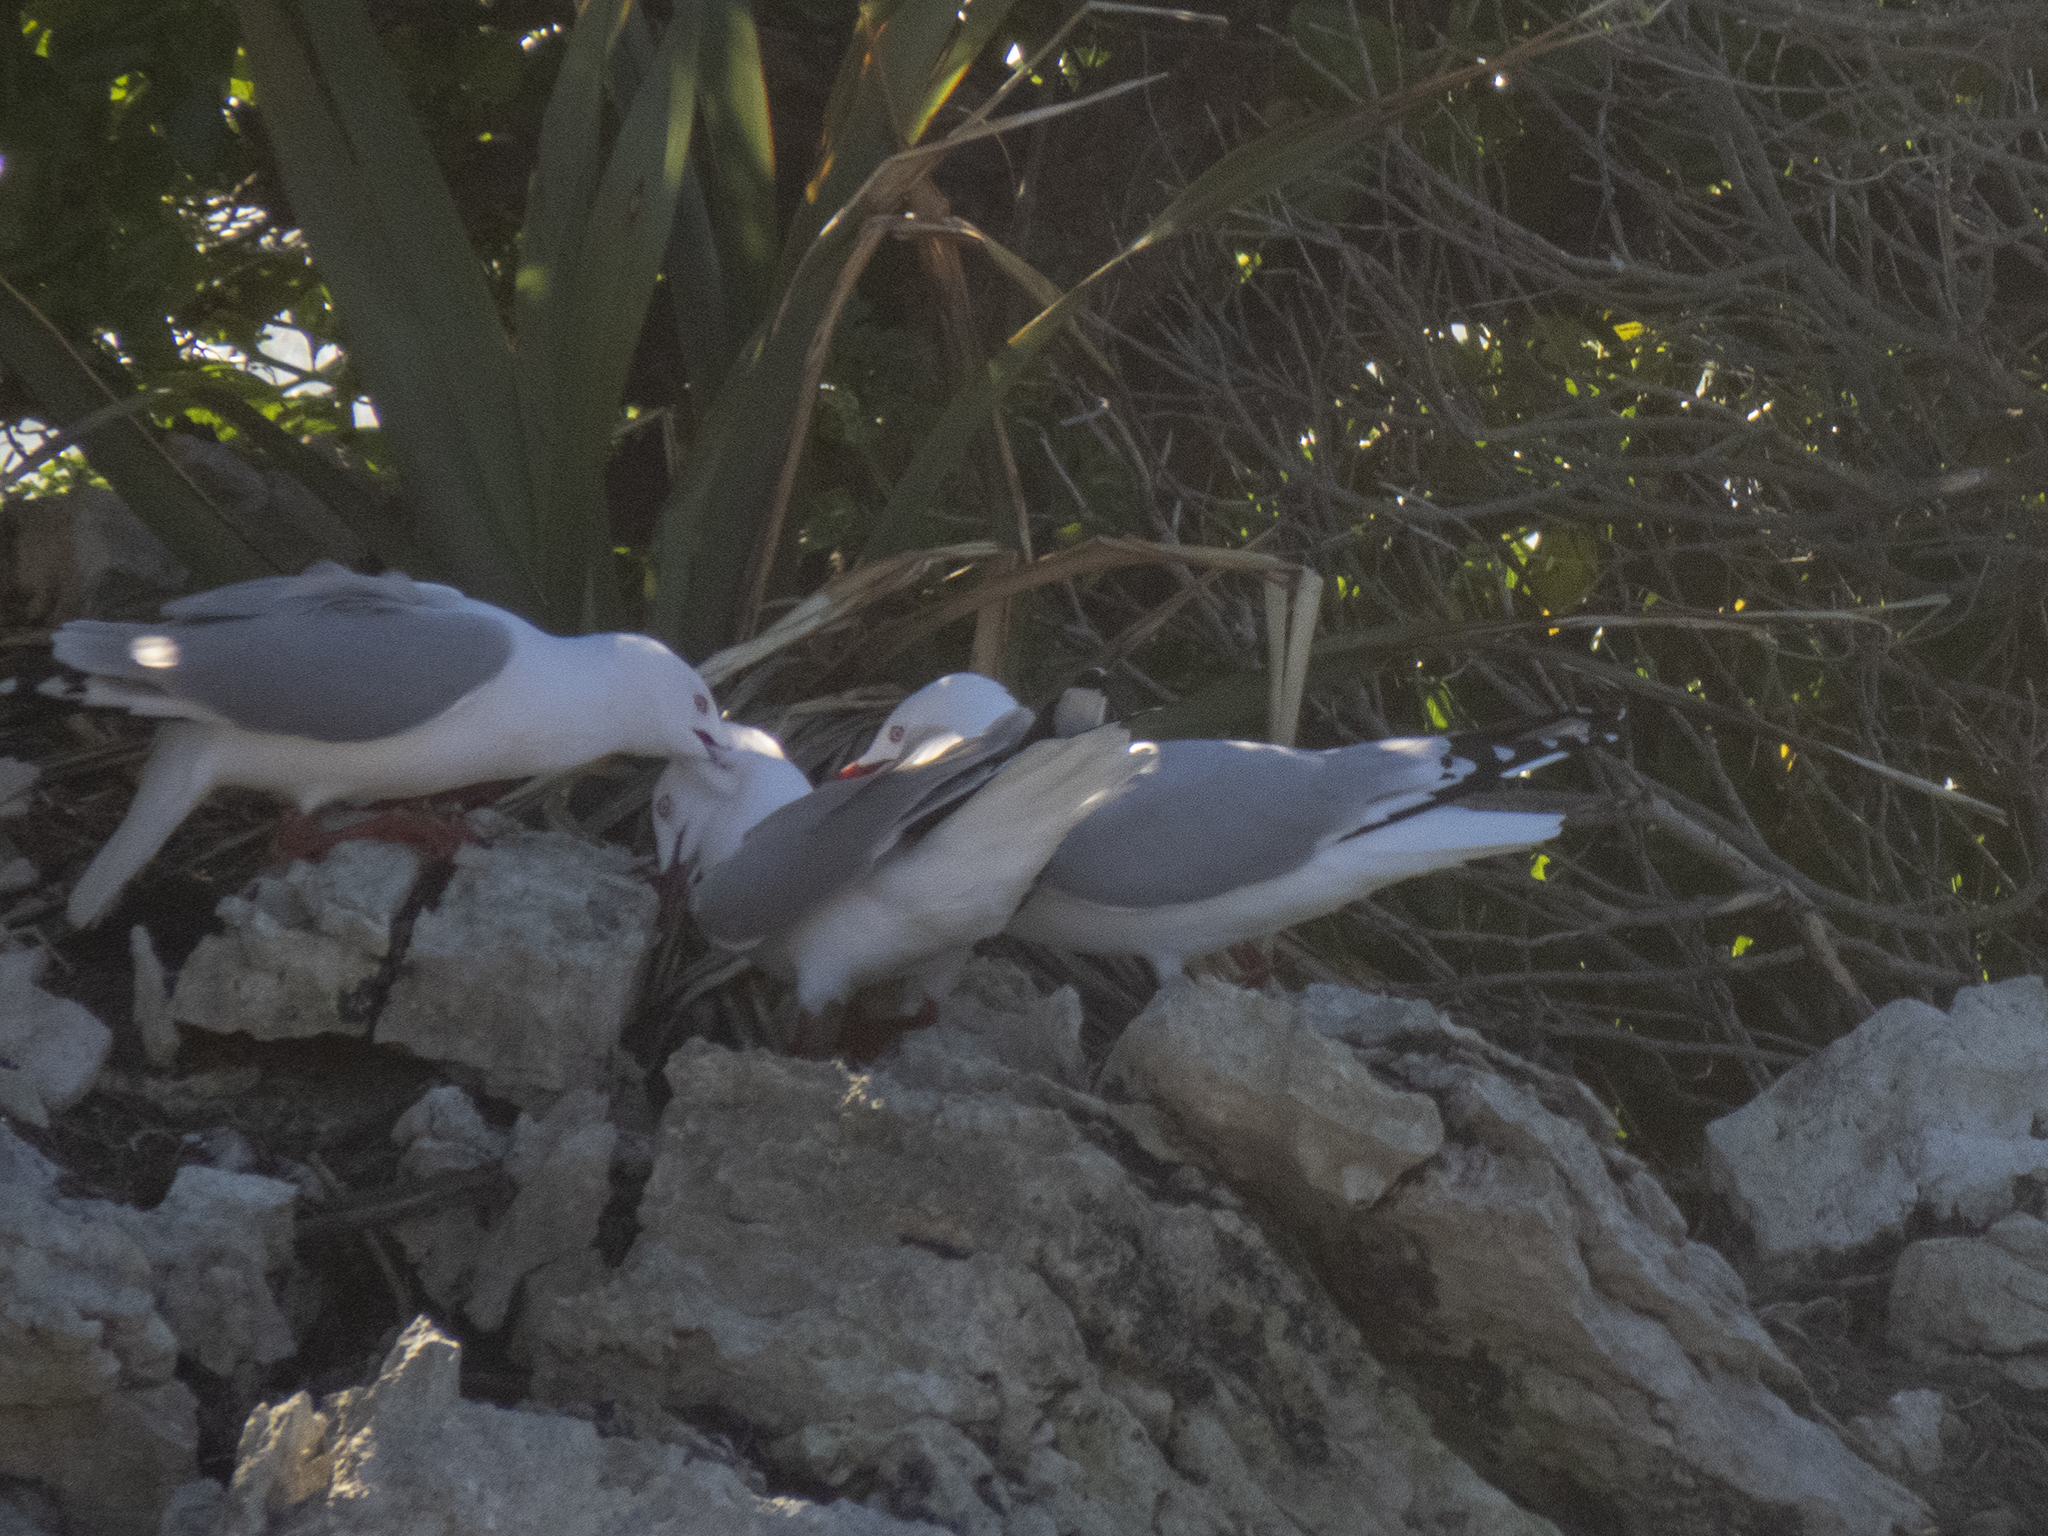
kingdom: Animalia
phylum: Chordata
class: Aves
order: Charadriiformes
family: Laridae
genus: Chroicocephalus
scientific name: Chroicocephalus novaehollandiae
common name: Silver gull
